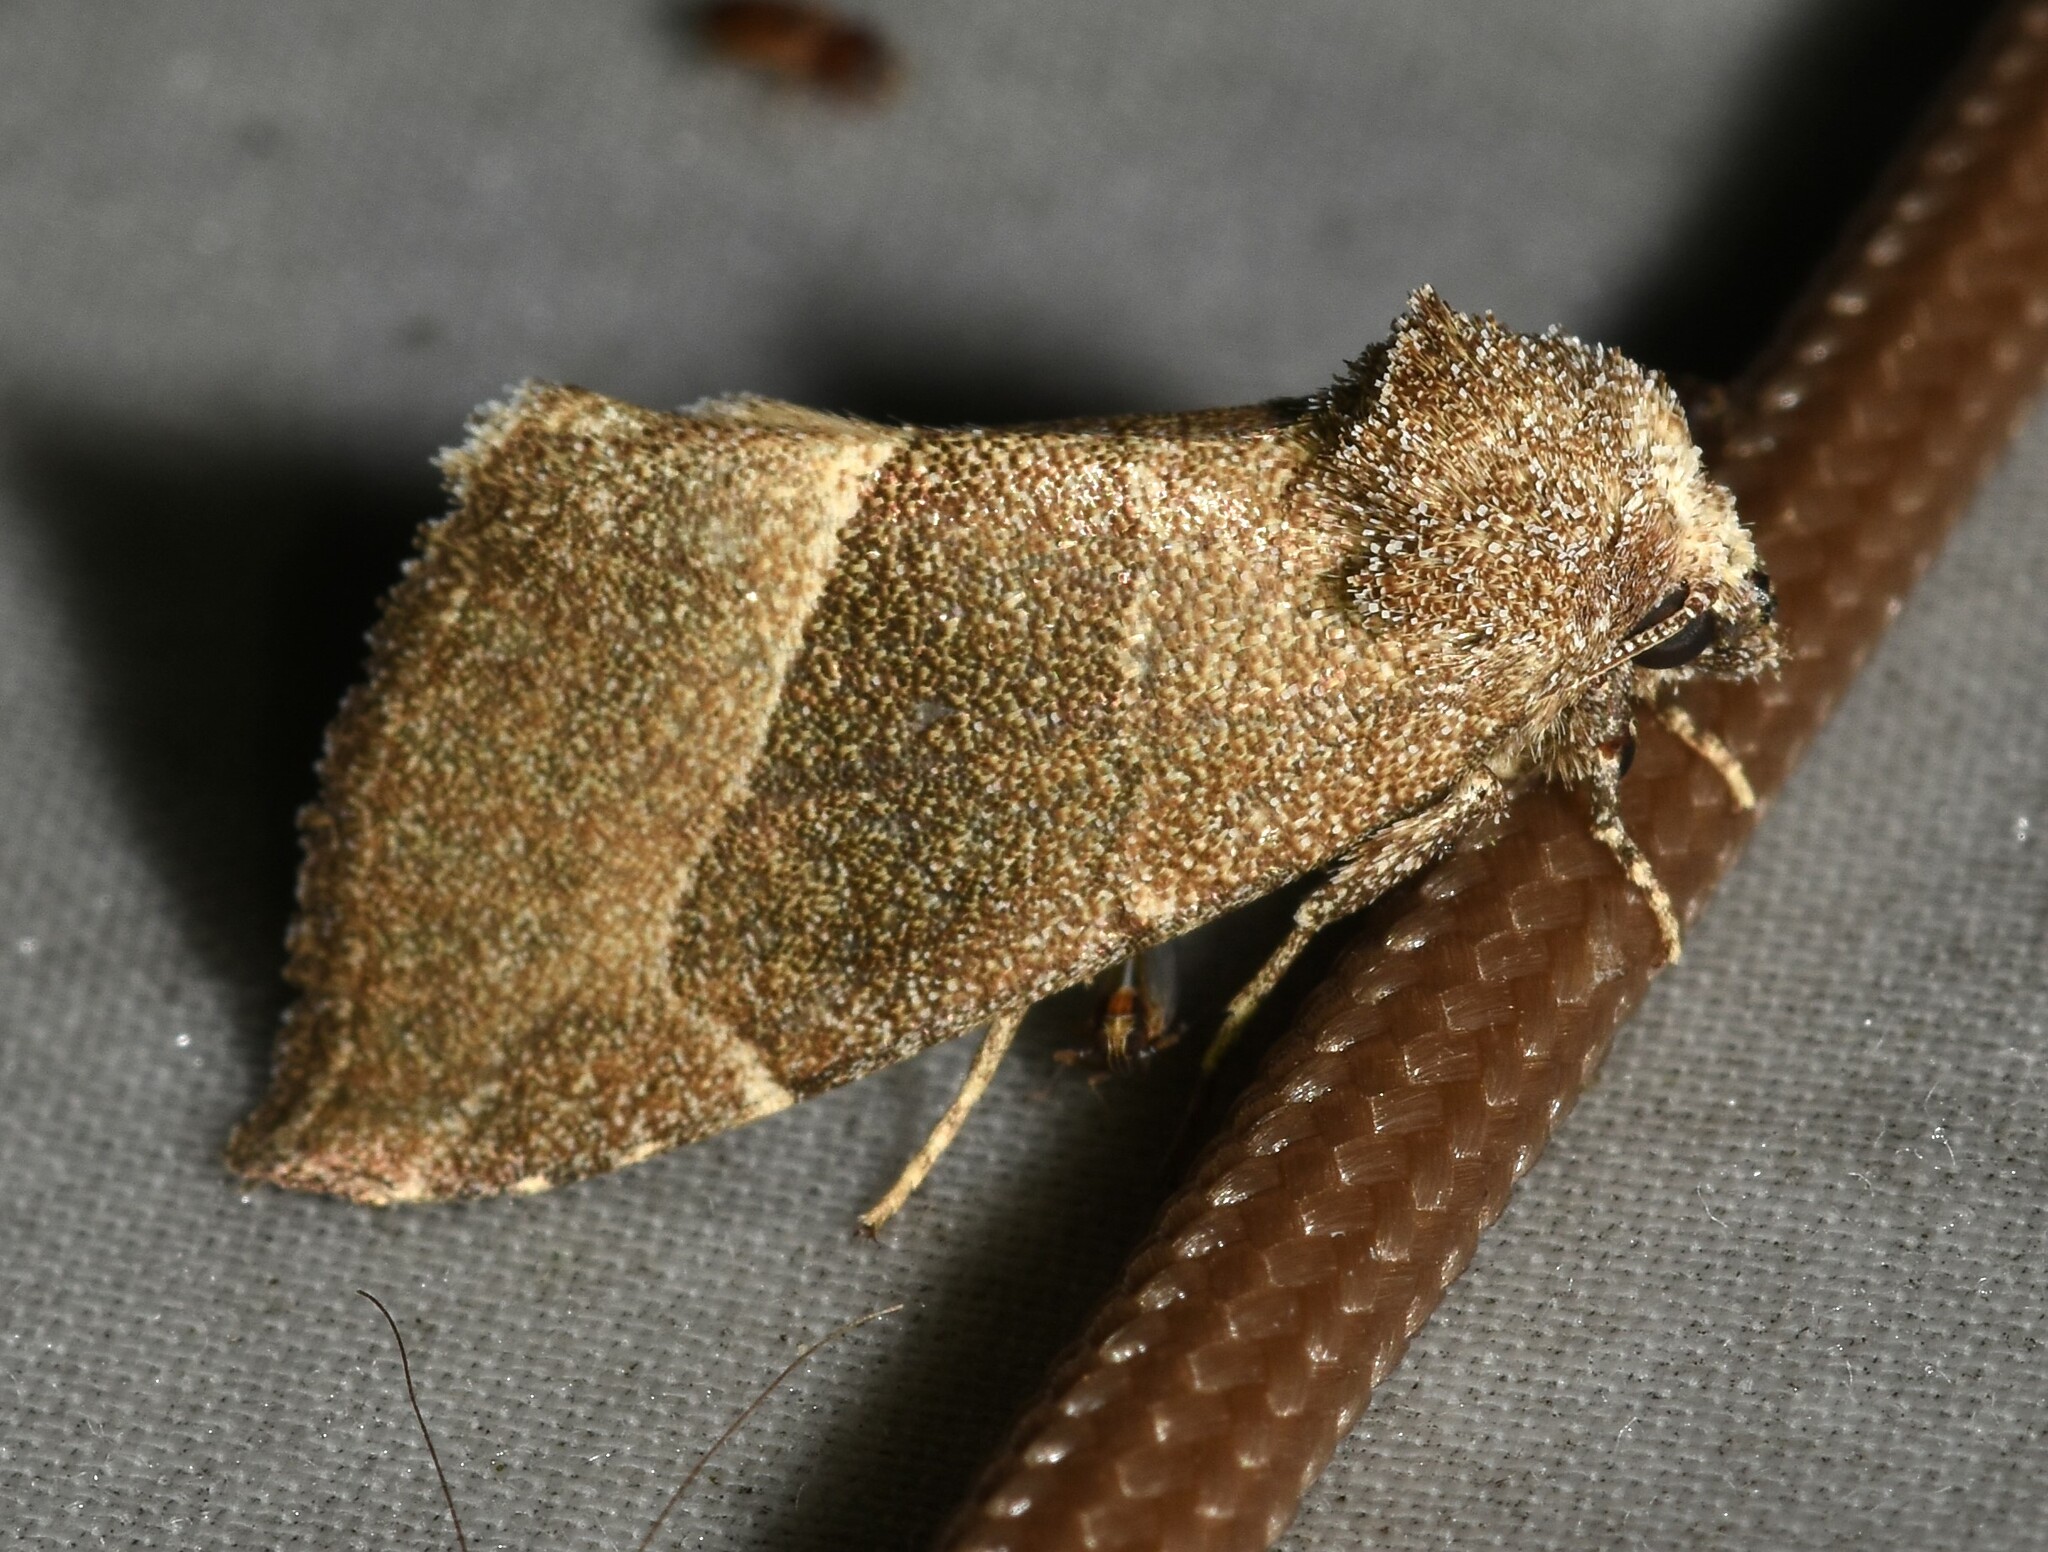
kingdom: Animalia
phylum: Arthropoda
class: Insecta
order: Lepidoptera
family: Noctuidae
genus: Plagiomimicus
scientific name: Plagiomimicus spumosum
